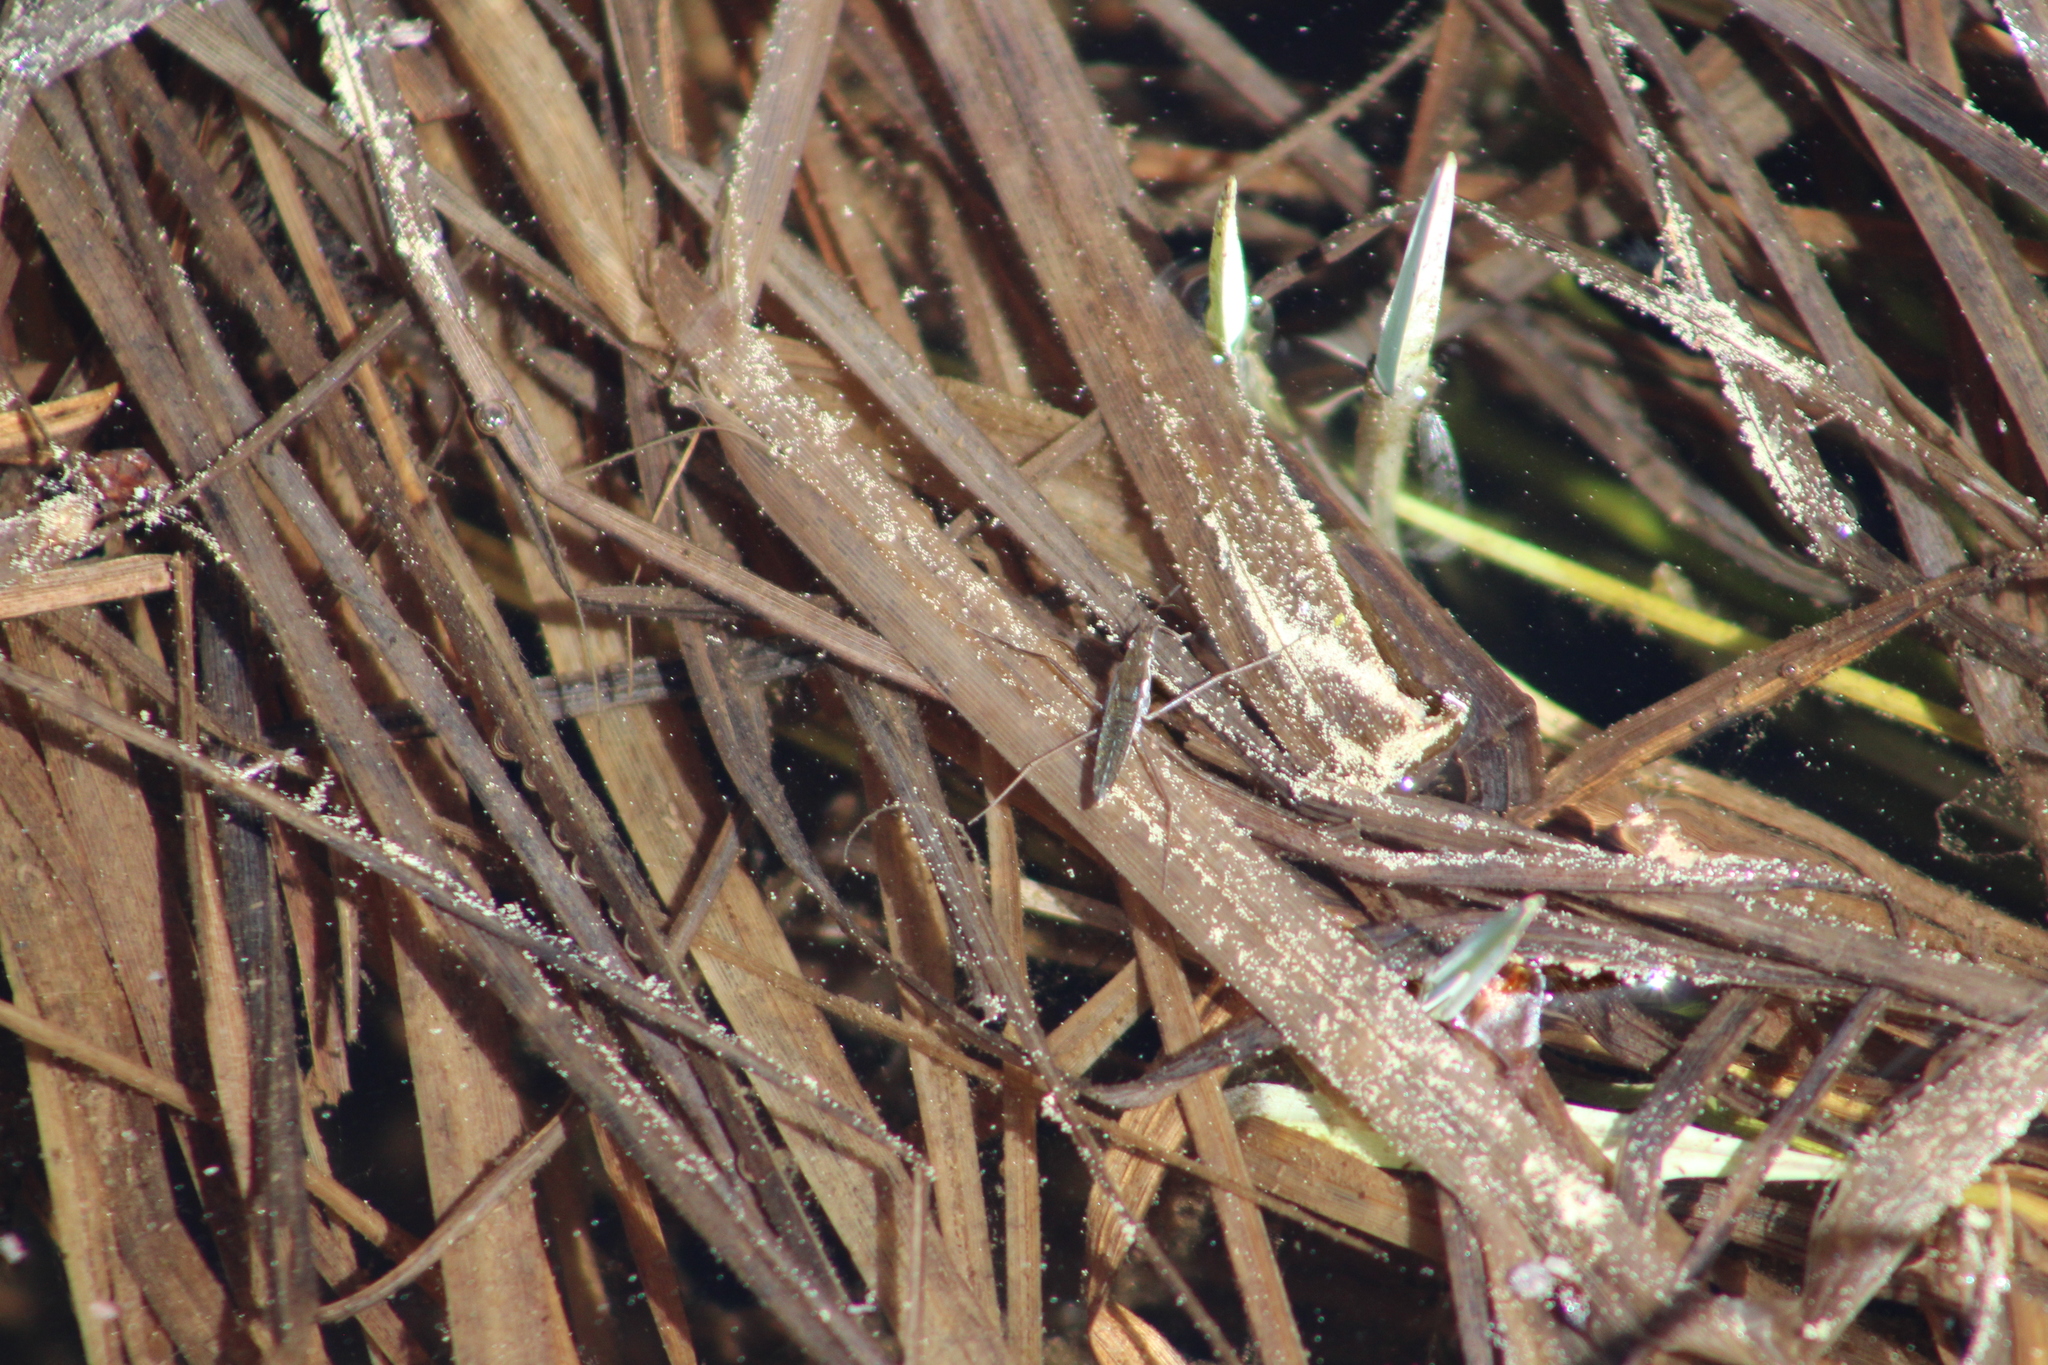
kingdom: Animalia
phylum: Arthropoda
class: Insecta
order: Hemiptera
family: Gerridae
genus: Aquarius
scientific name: Aquarius remigis
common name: Common water strider
